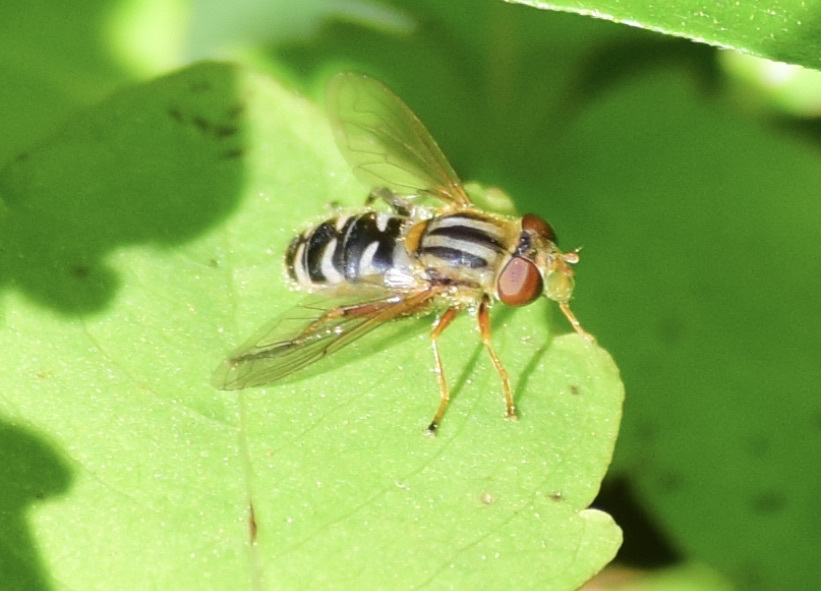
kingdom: Animalia
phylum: Arthropoda
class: Insecta
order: Diptera
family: Syrphidae
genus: Anasimyia
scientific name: Anasimyia
